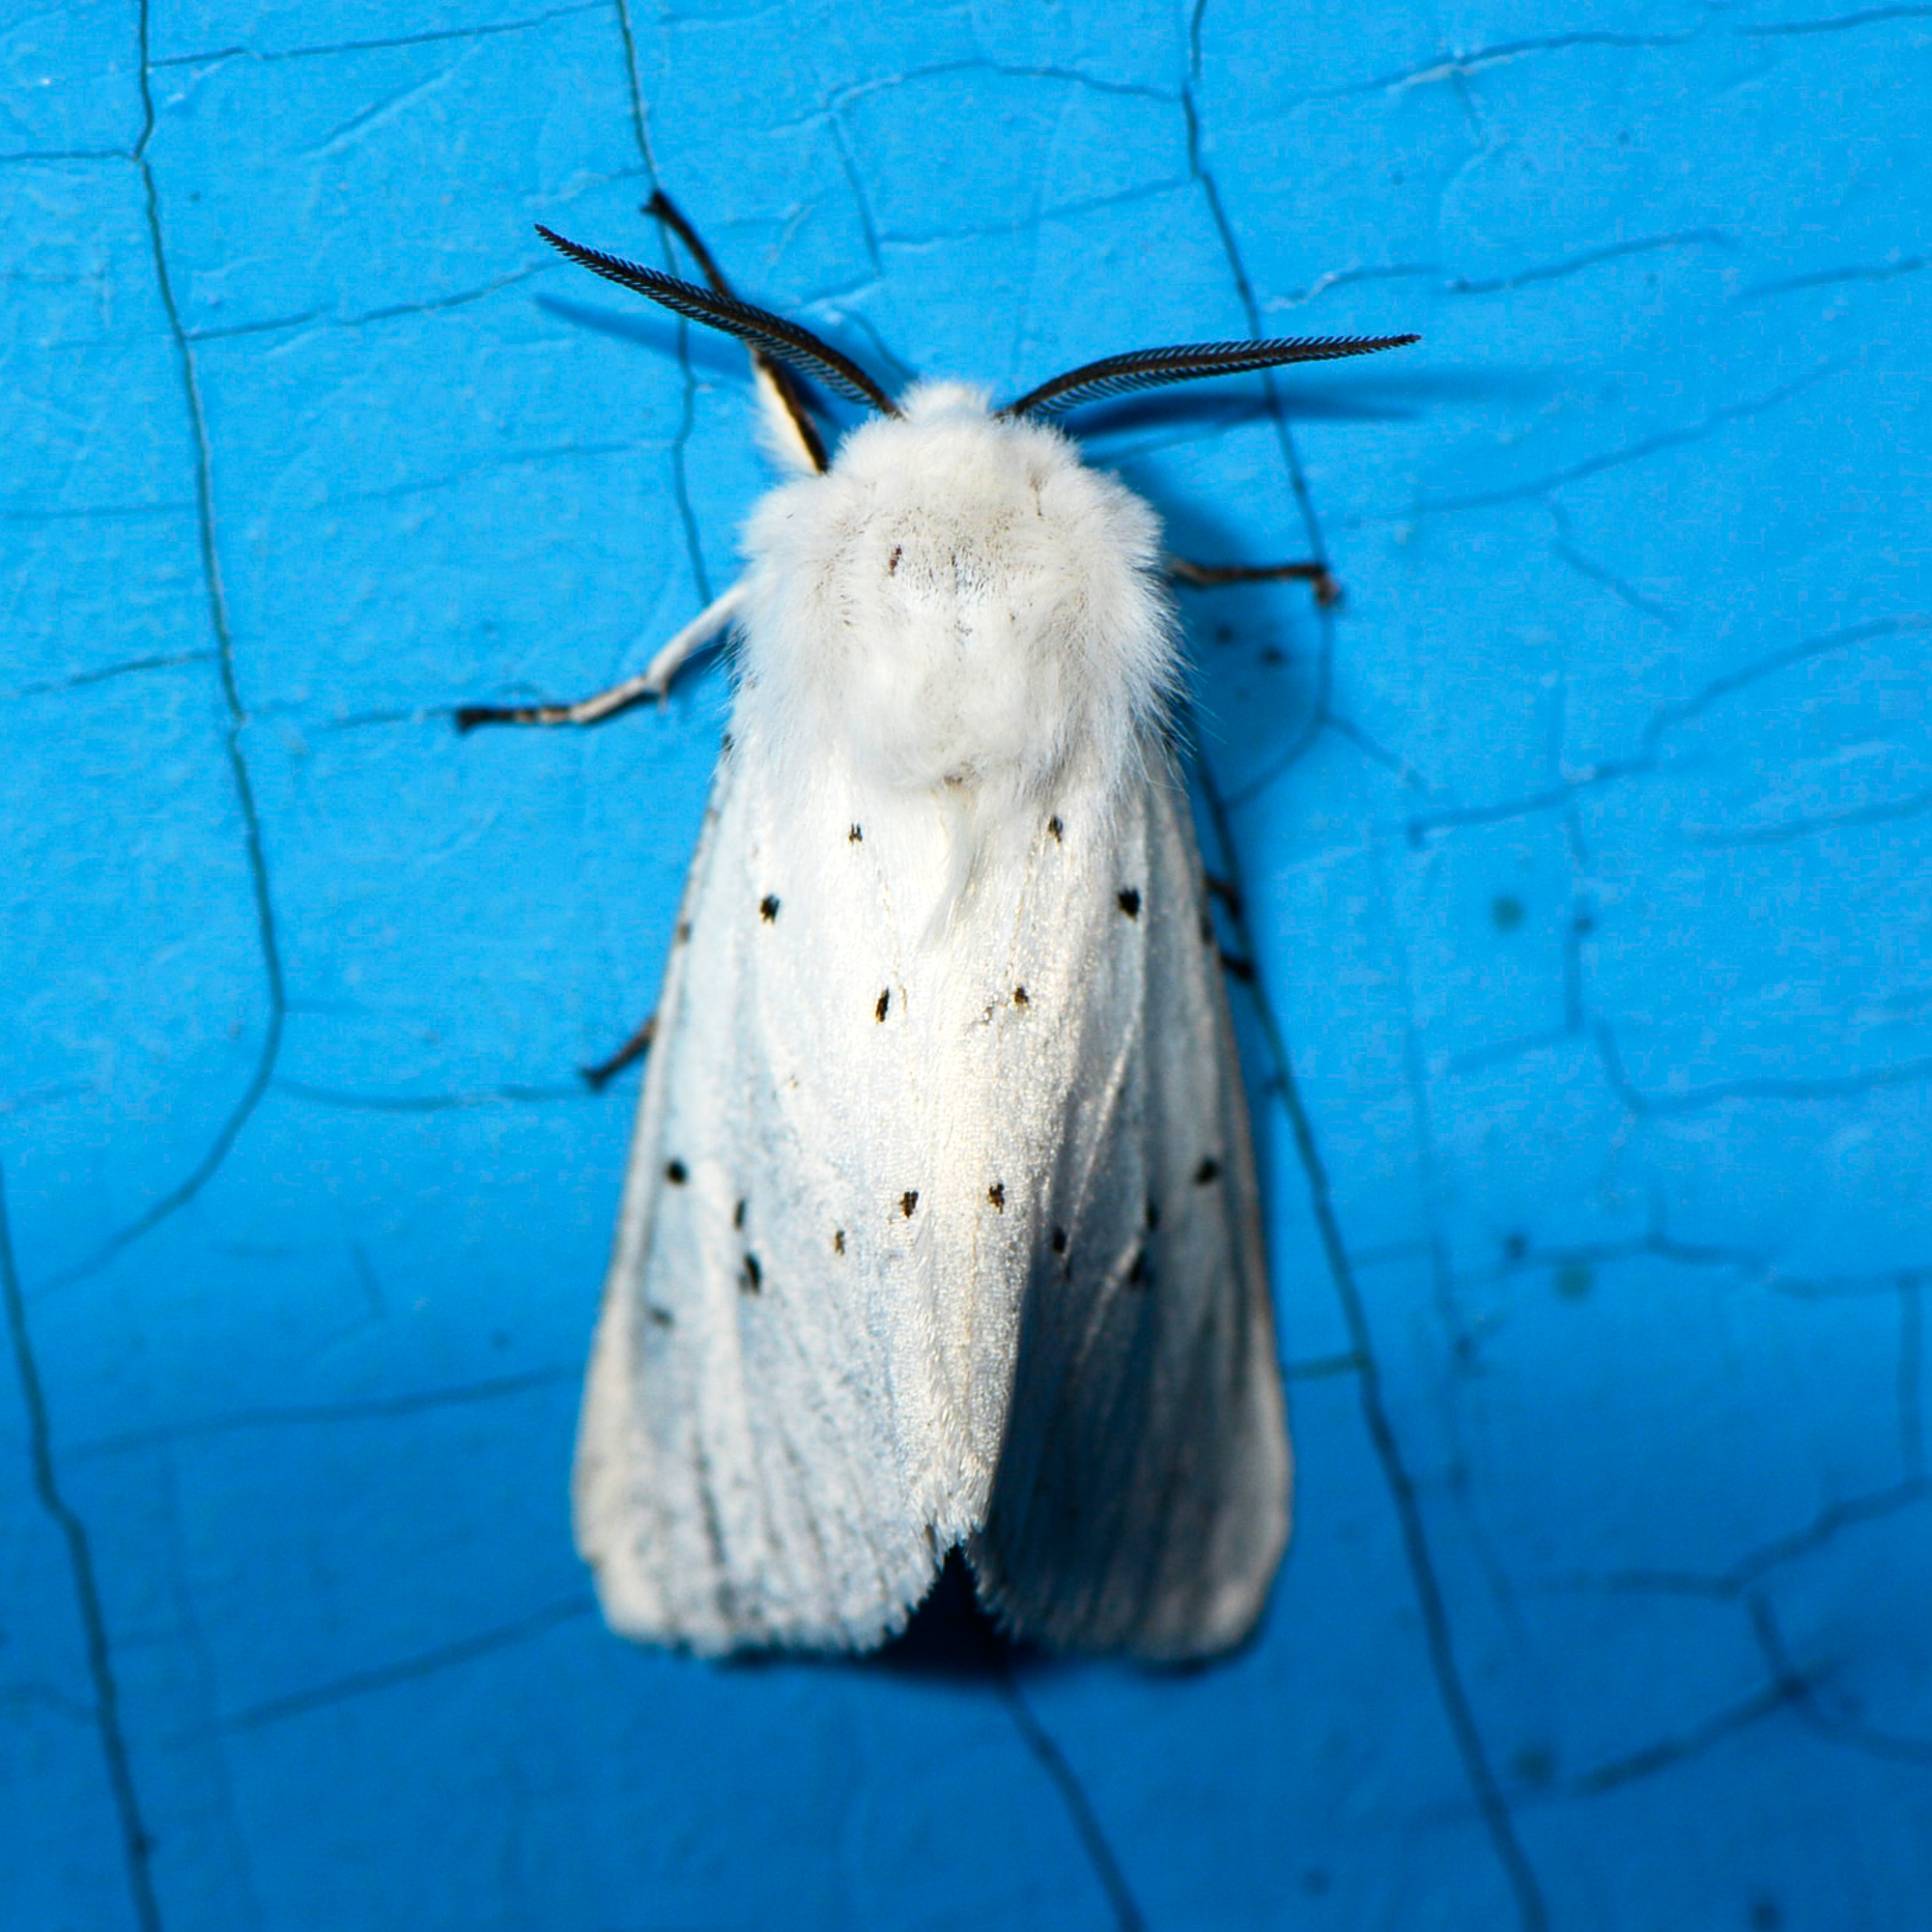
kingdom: Animalia
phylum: Arthropoda
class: Insecta
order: Lepidoptera
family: Erebidae
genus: Spilosoma
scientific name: Spilosoma lubricipeda
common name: White ermine
